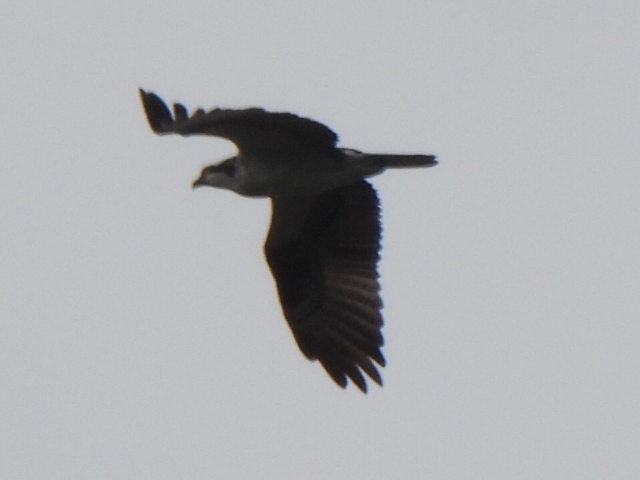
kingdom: Animalia
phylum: Chordata
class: Aves
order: Accipitriformes
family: Pandionidae
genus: Pandion
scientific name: Pandion haliaetus
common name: Osprey
